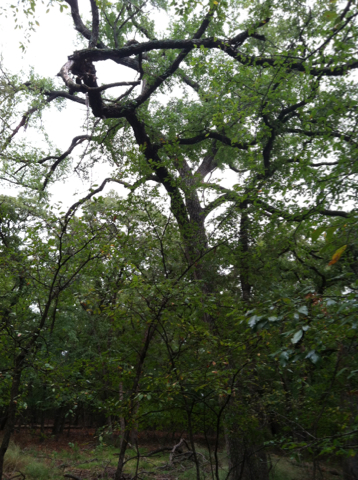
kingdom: Plantae
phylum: Tracheophyta
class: Magnoliopsida
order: Rosales
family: Ulmaceae
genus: Ulmus
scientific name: Ulmus crassifolia
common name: Basket elm
